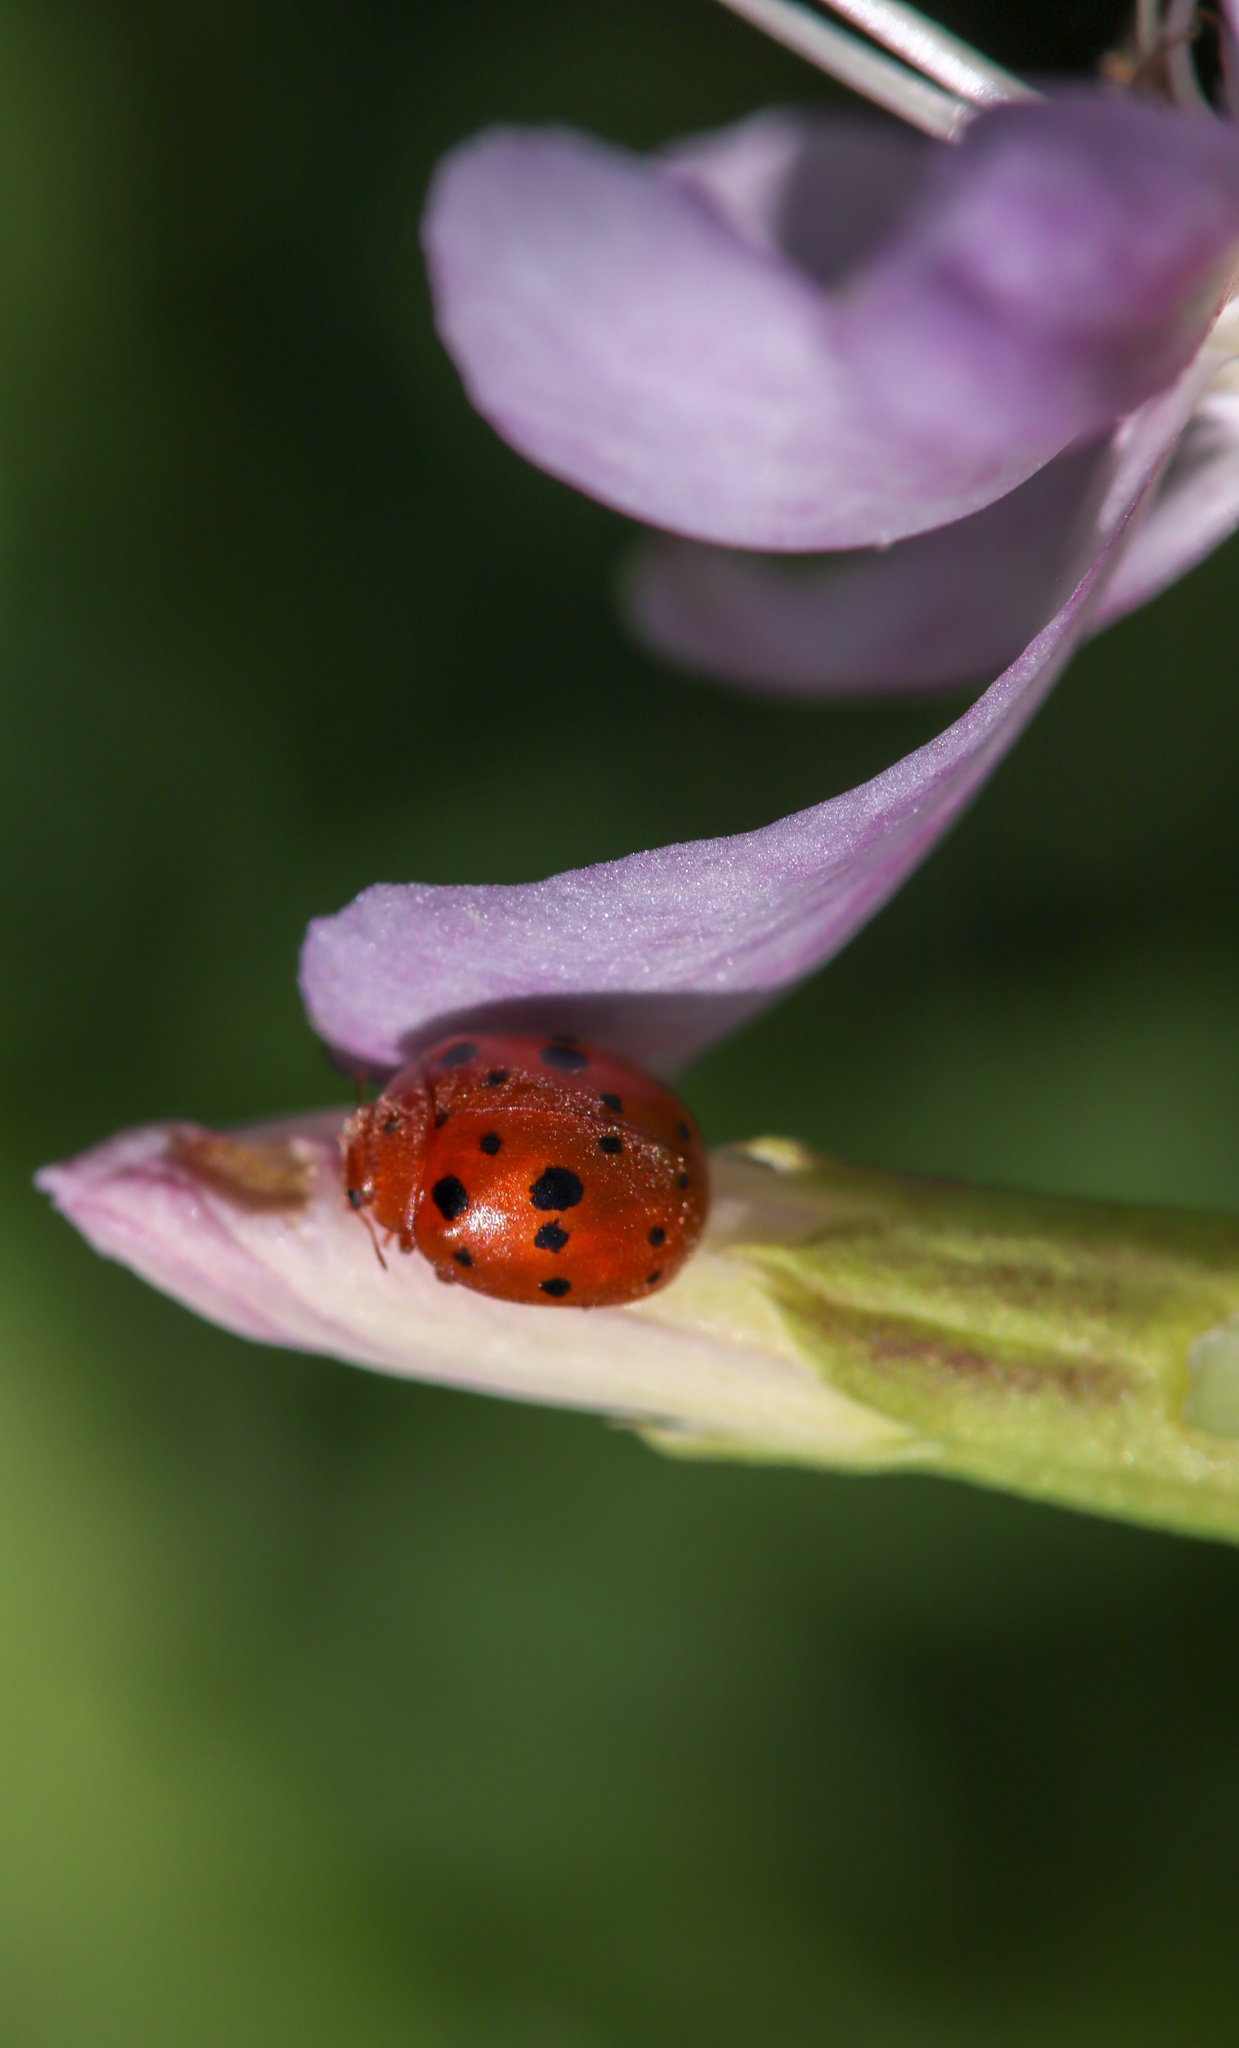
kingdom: Animalia
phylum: Arthropoda
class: Insecta
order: Coleoptera
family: Coccinellidae
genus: Harmonia
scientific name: Harmonia axyridis
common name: Harlequin ladybird
